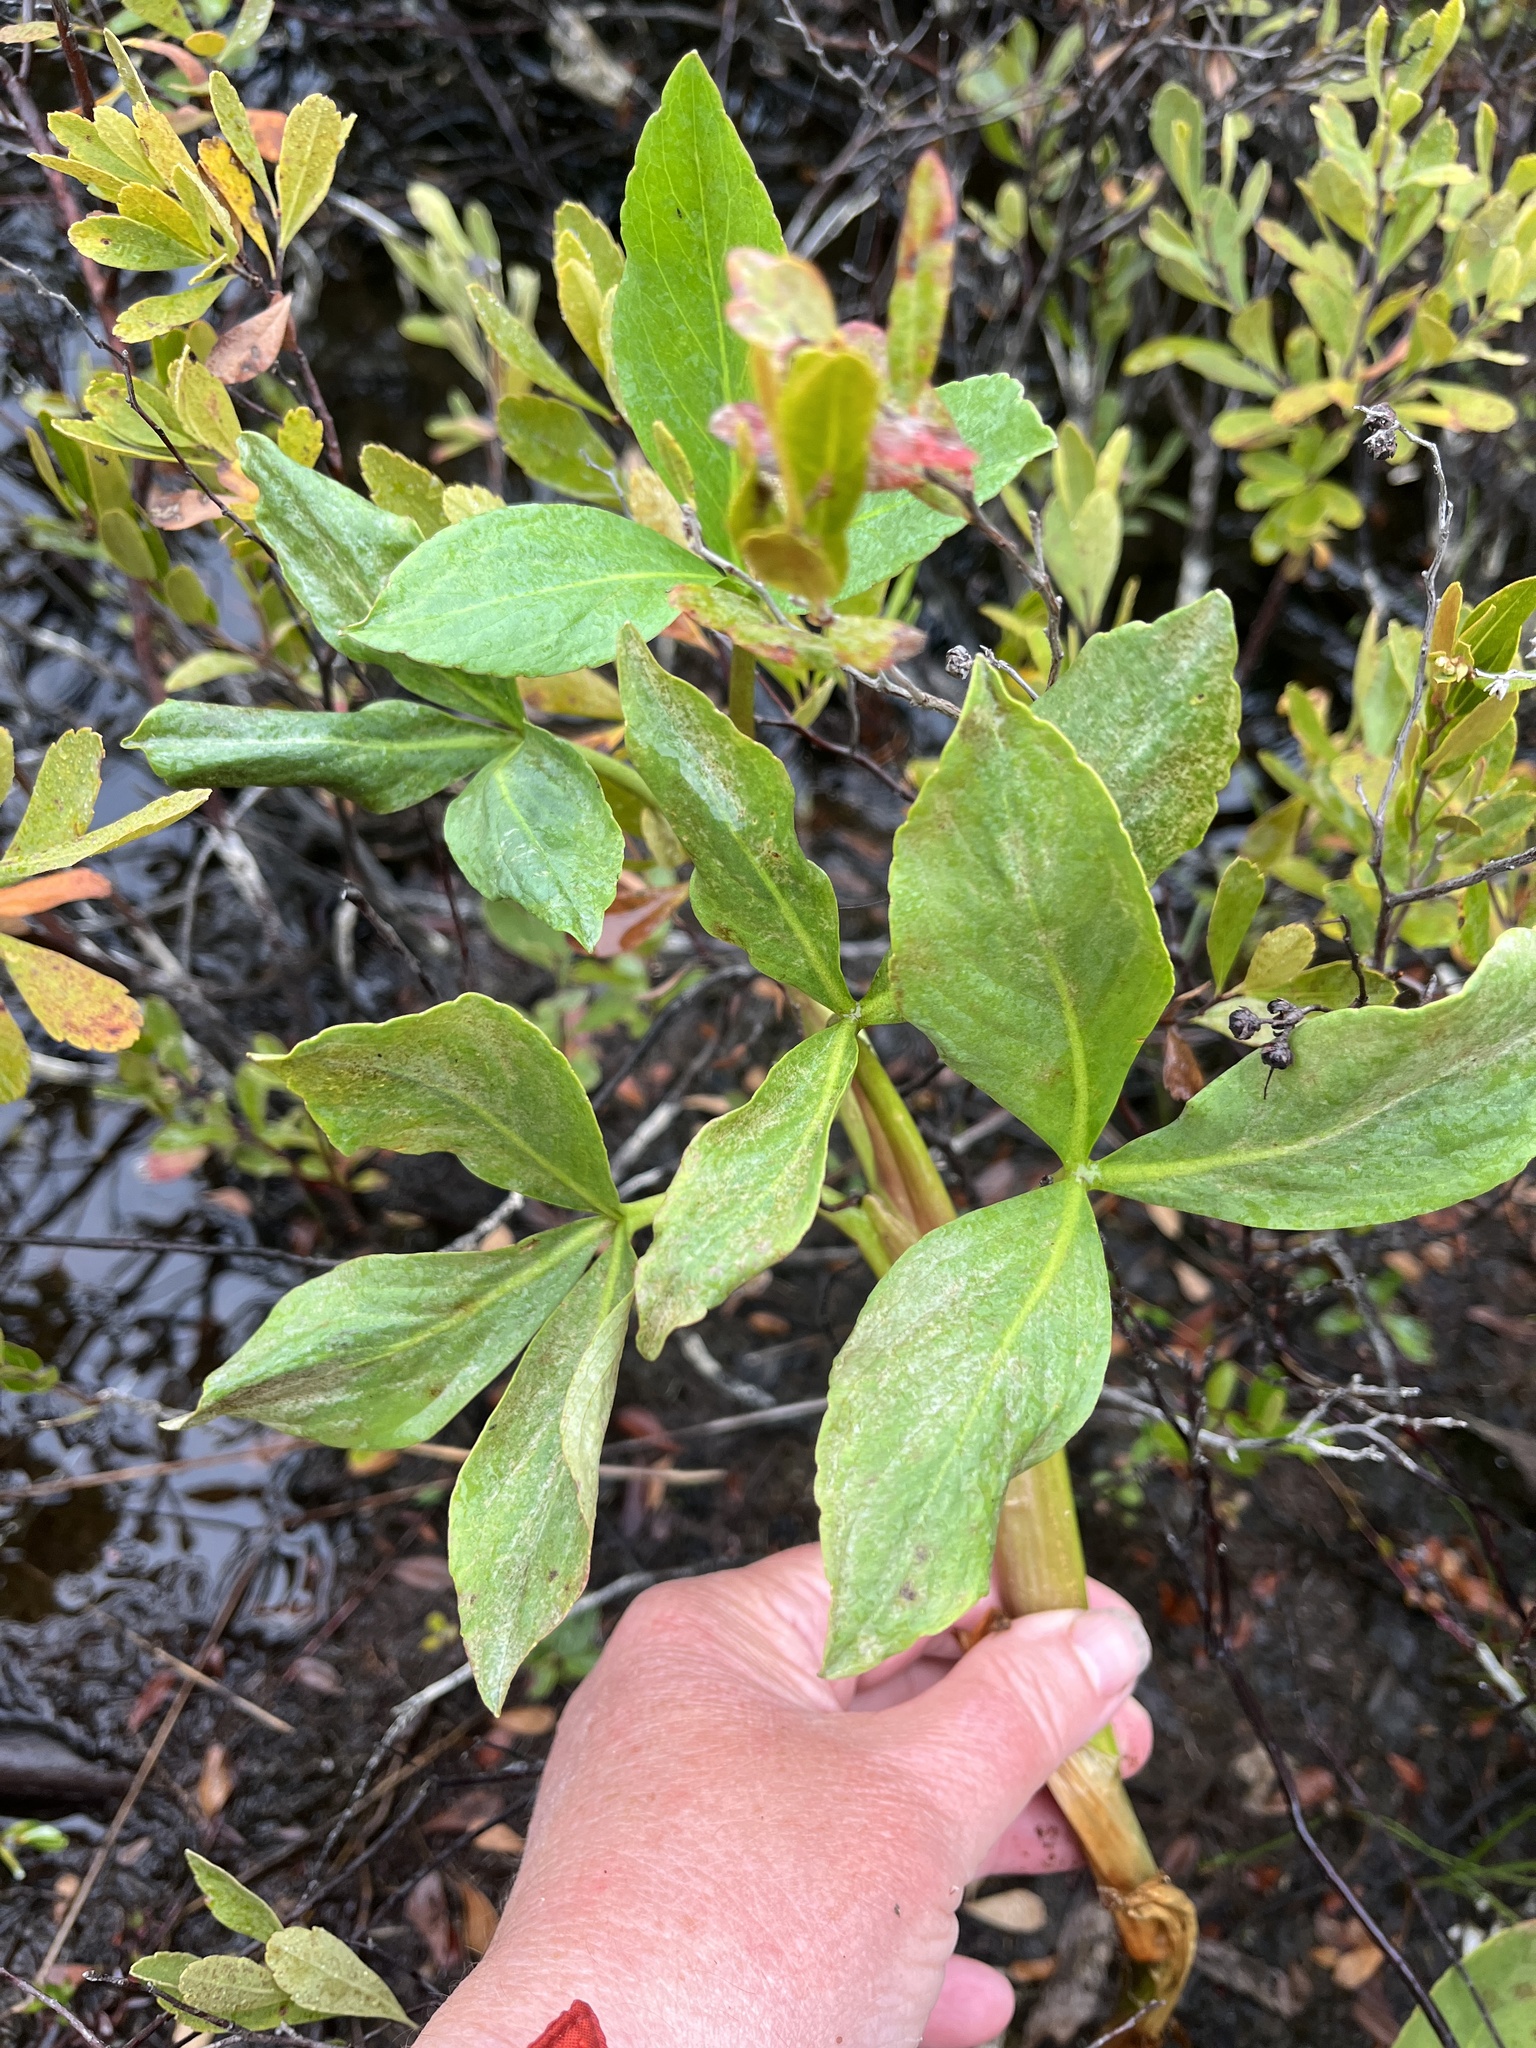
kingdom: Plantae
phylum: Tracheophyta
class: Magnoliopsida
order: Asterales
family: Menyanthaceae
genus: Menyanthes
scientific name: Menyanthes trifoliata
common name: Bogbean
